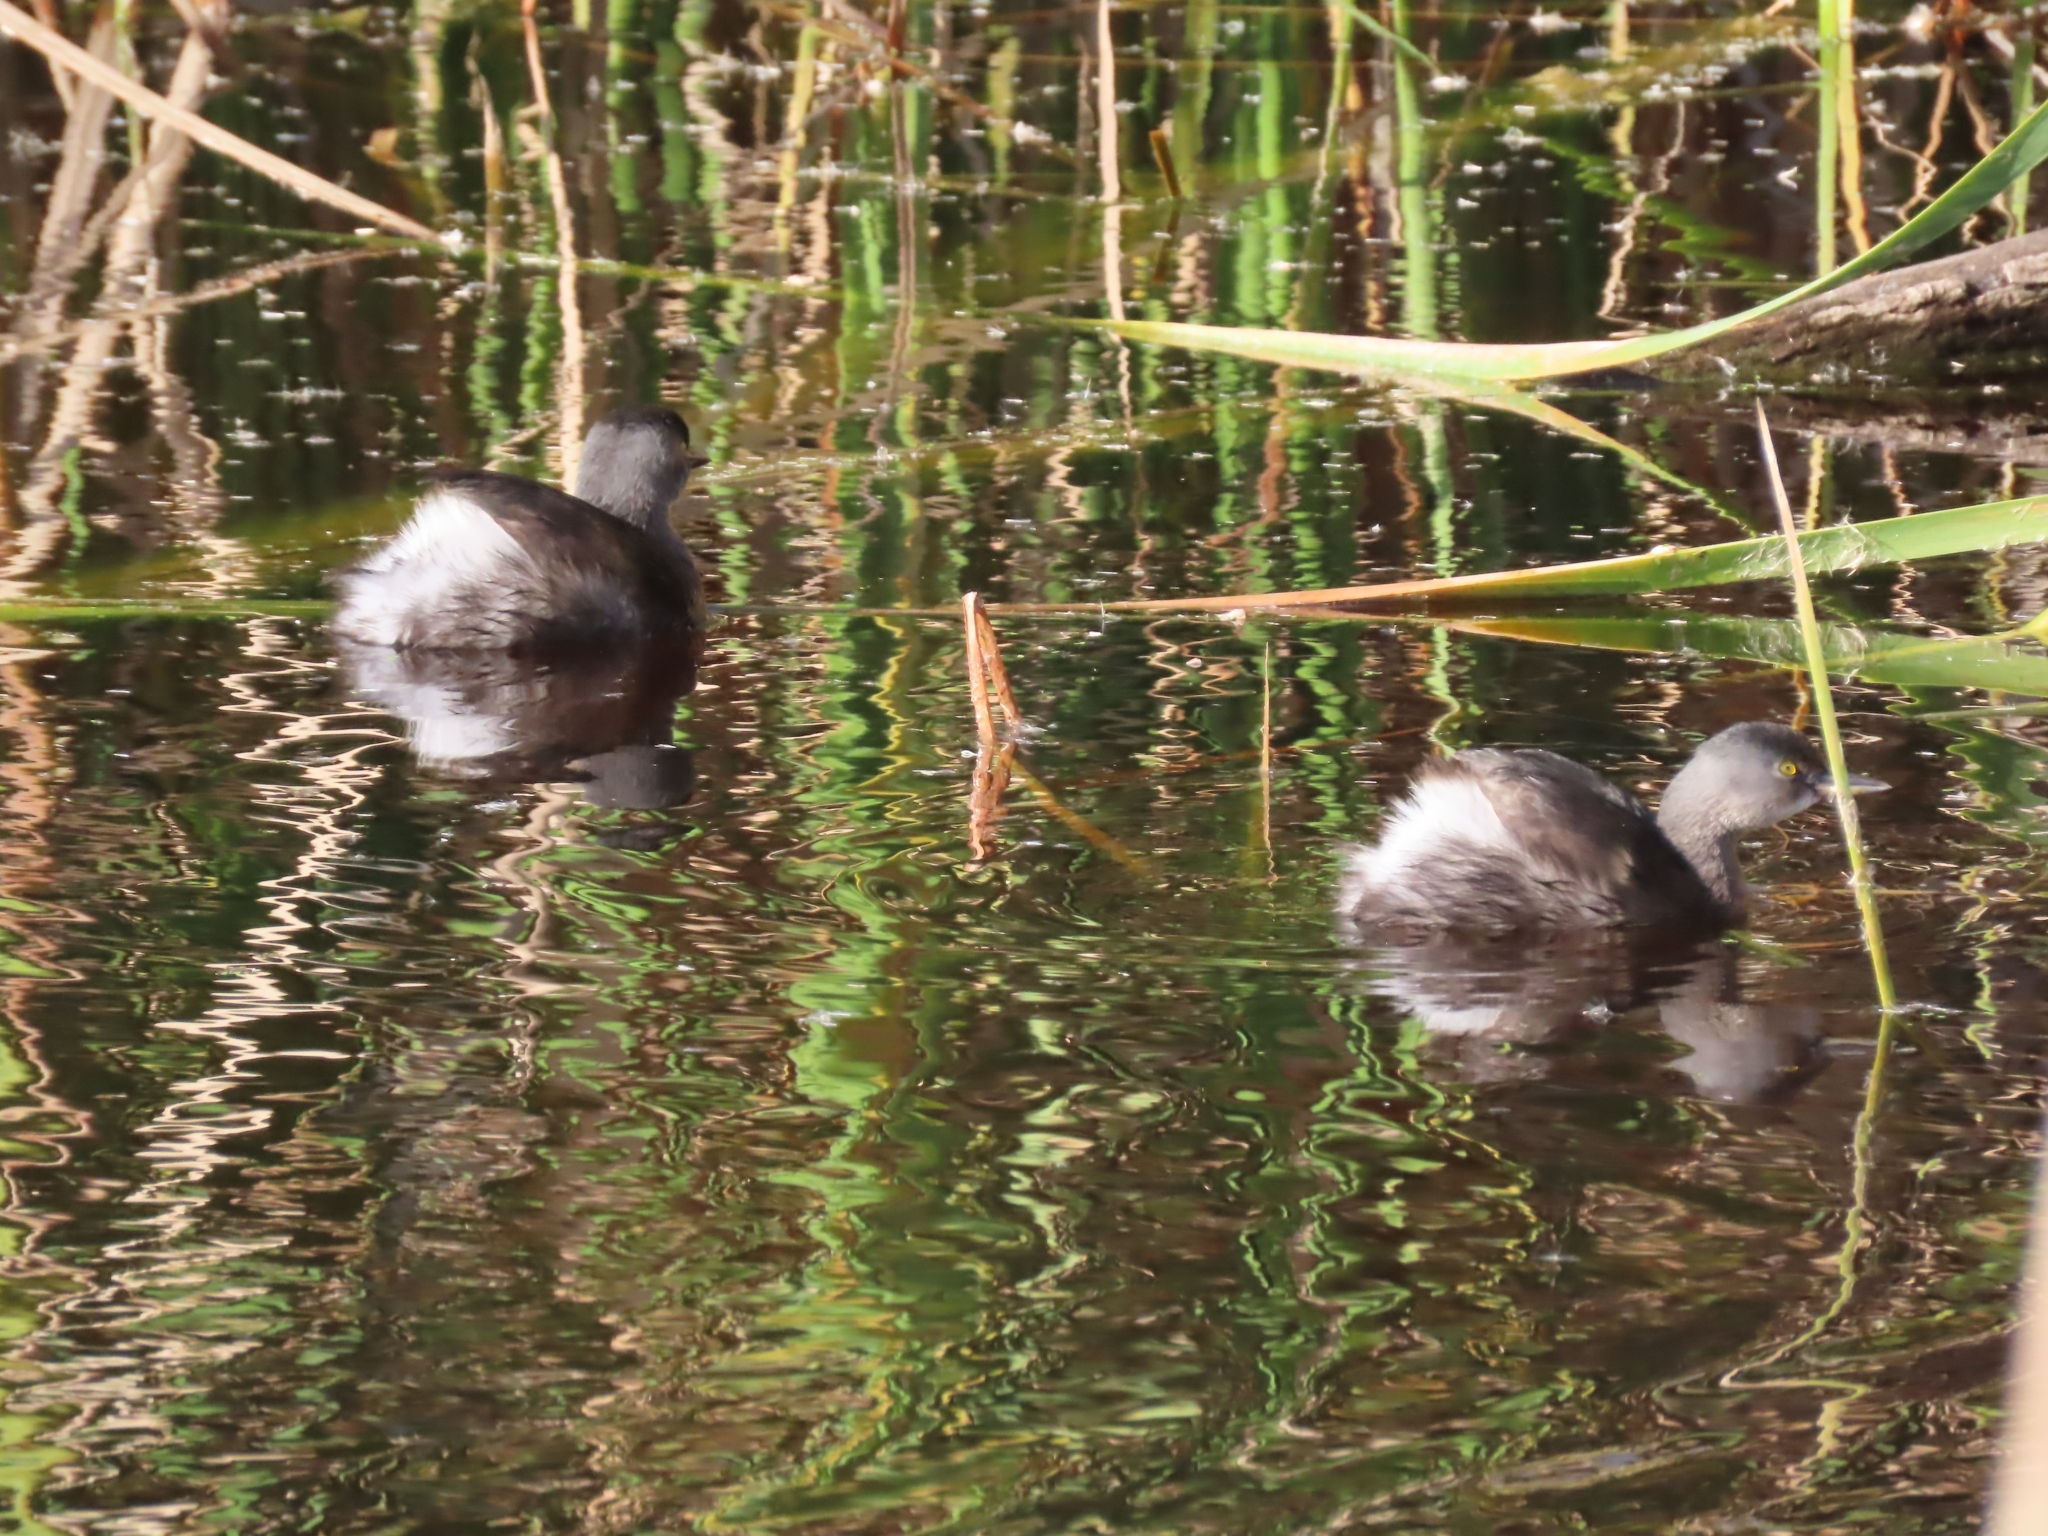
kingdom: Animalia
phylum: Chordata
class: Aves
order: Podicipediformes
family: Podicipedidae
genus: Tachybaptus
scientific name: Tachybaptus dominicus
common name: Least grebe
